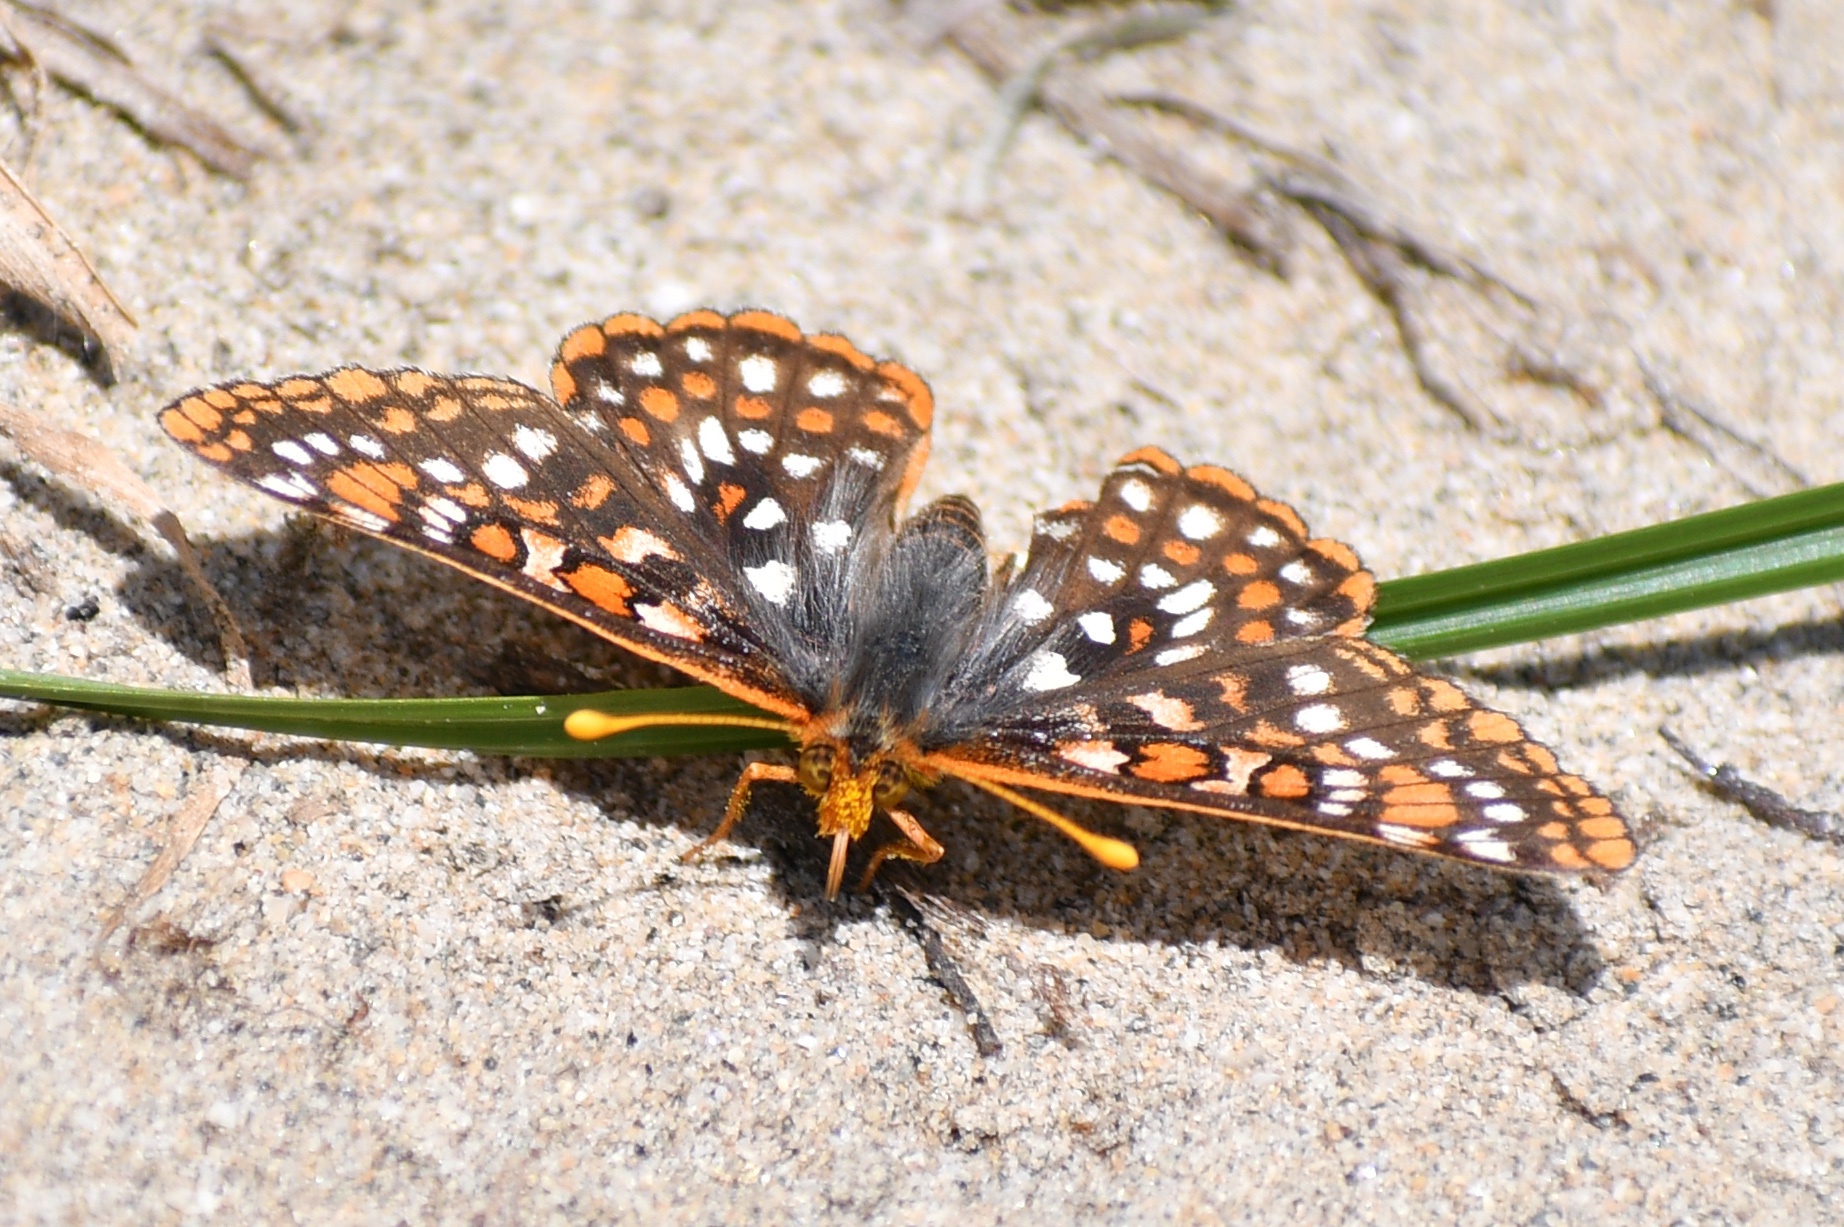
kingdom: Animalia
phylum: Arthropoda
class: Insecta
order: Lepidoptera
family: Nymphalidae
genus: Occidryas
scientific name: Occidryas anicia
